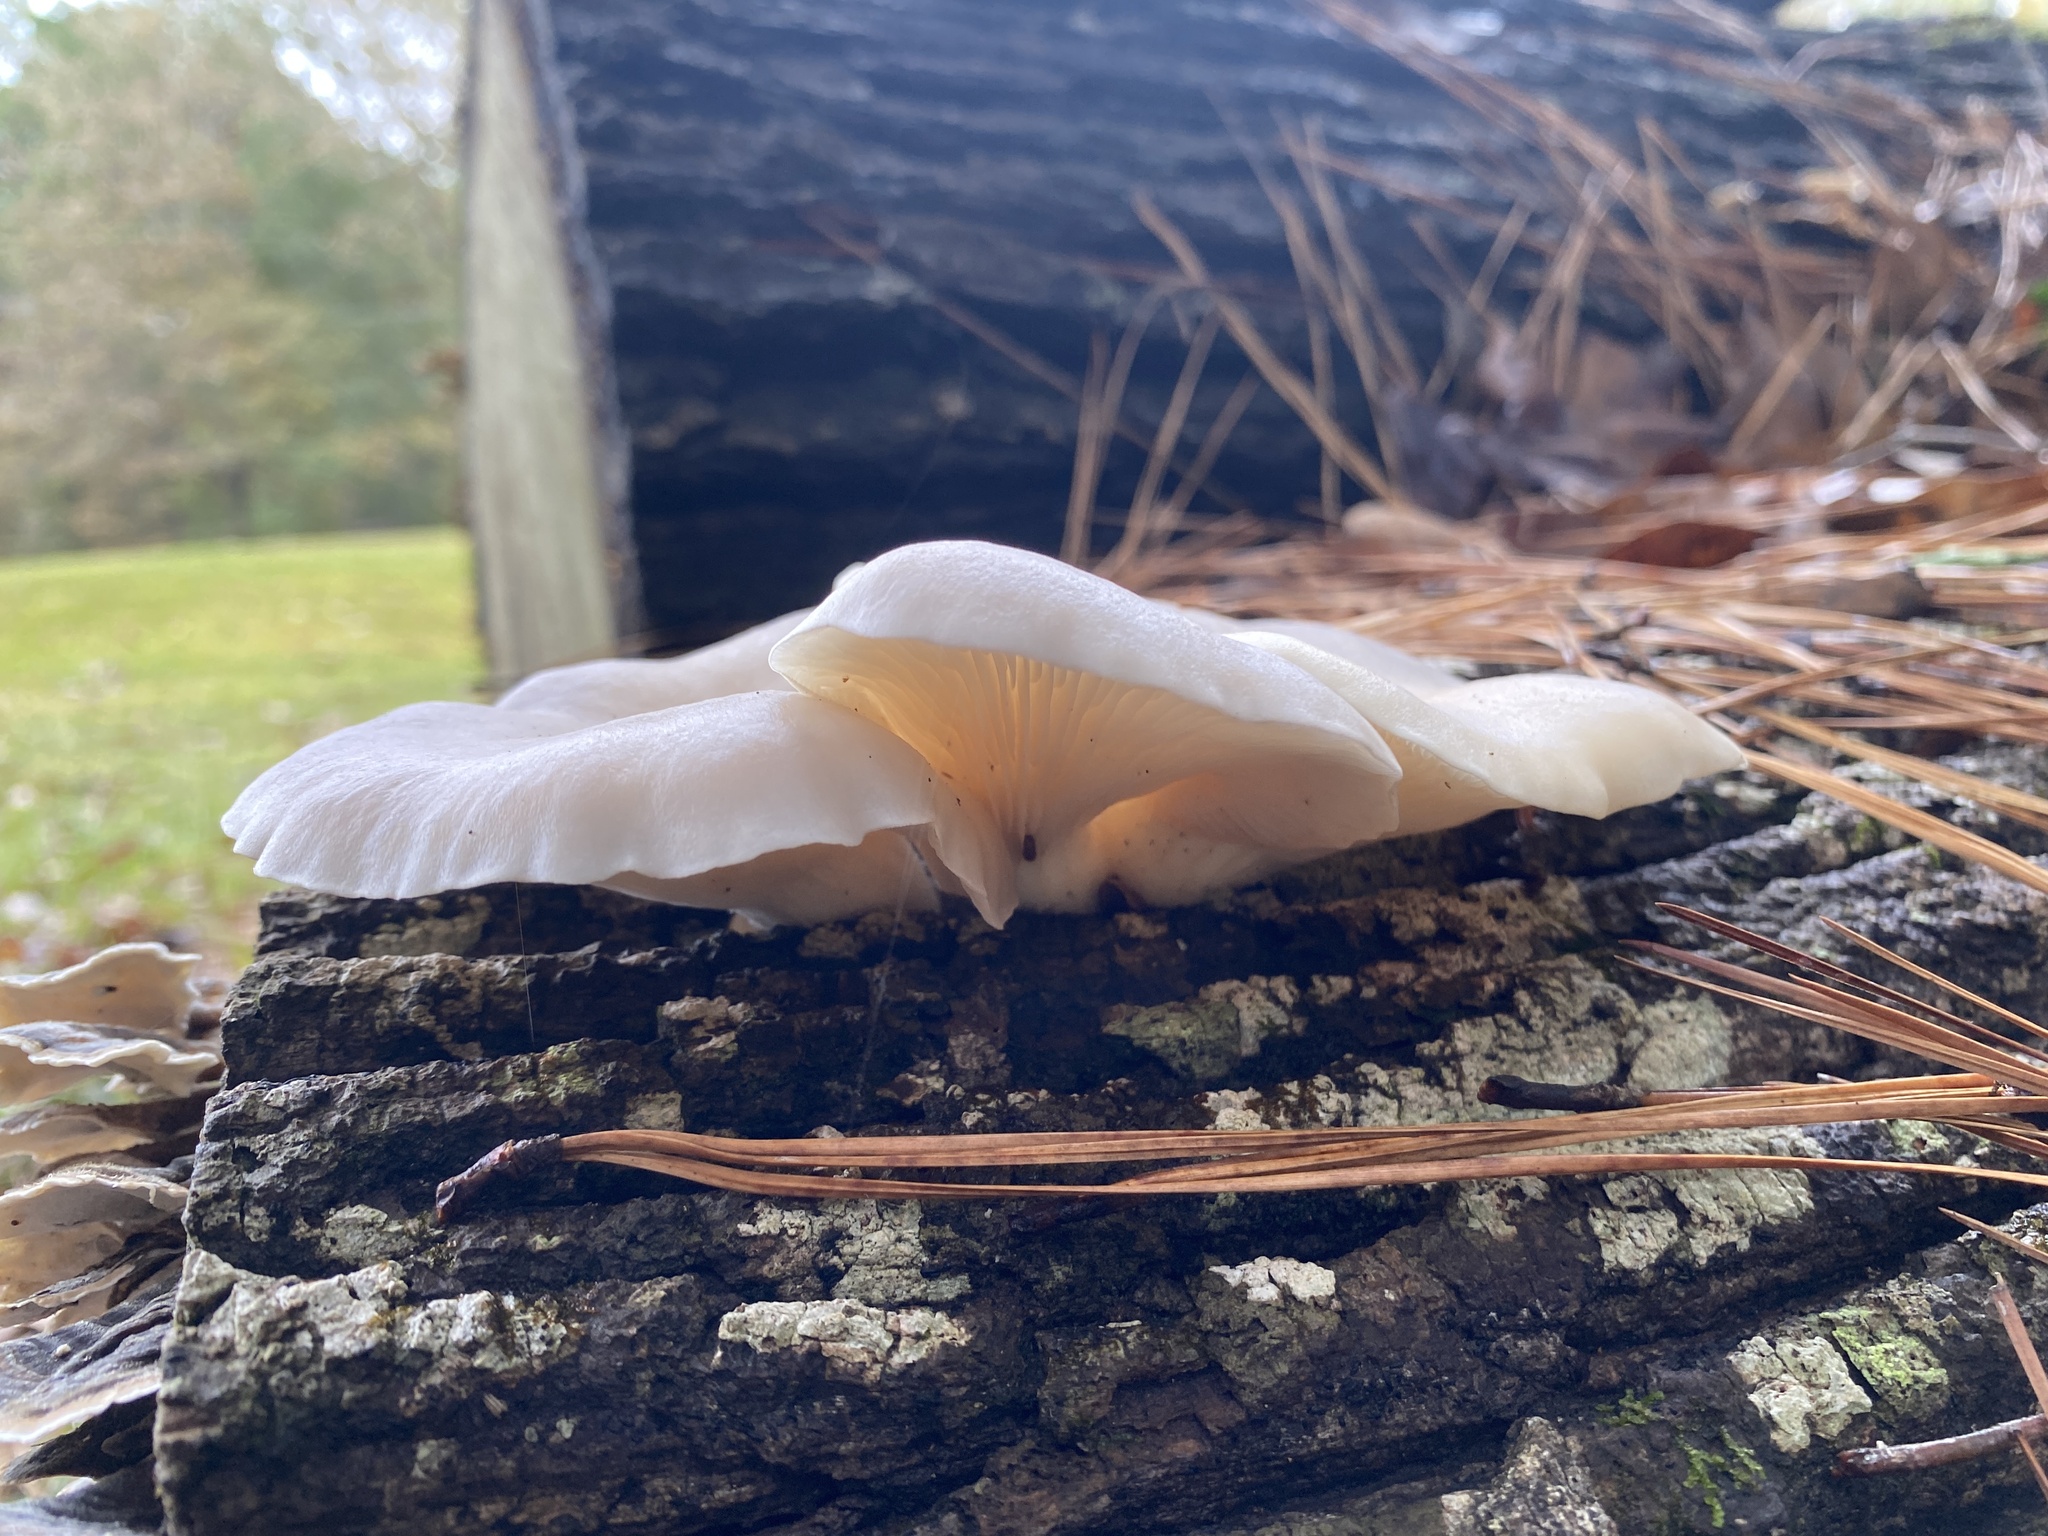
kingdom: Fungi
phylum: Basidiomycota
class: Agaricomycetes
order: Agaricales
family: Pleurotaceae
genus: Pleurotus
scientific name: Pleurotus ostreatus
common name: Oyster mushroom
